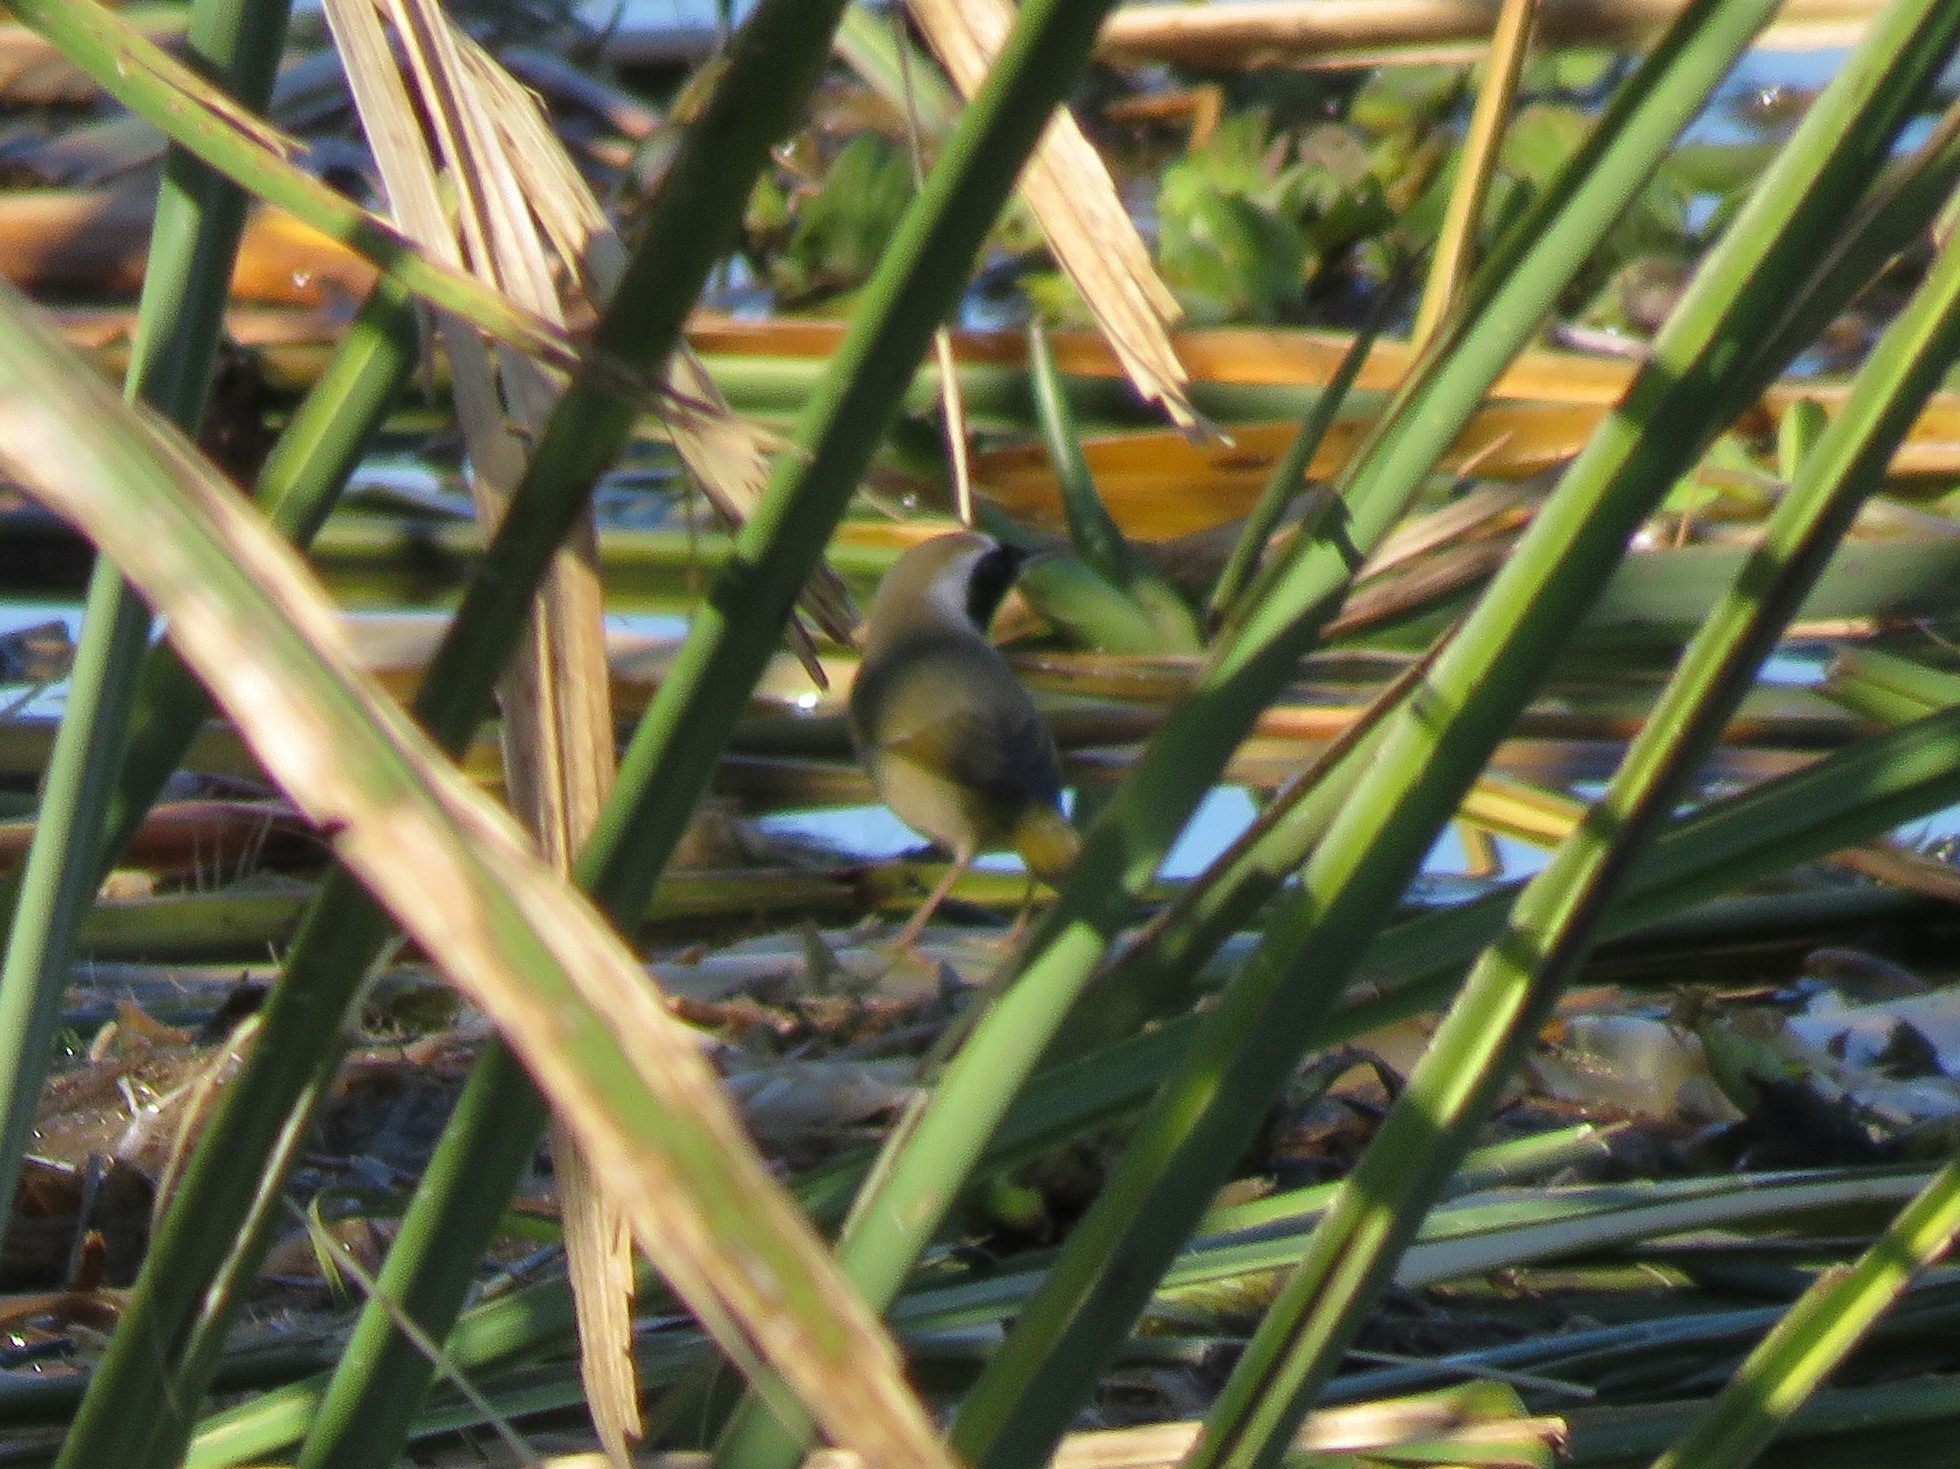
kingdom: Animalia
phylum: Chordata
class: Aves
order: Passeriformes
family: Parulidae
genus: Geothlypis
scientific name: Geothlypis trichas
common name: Common yellowthroat
